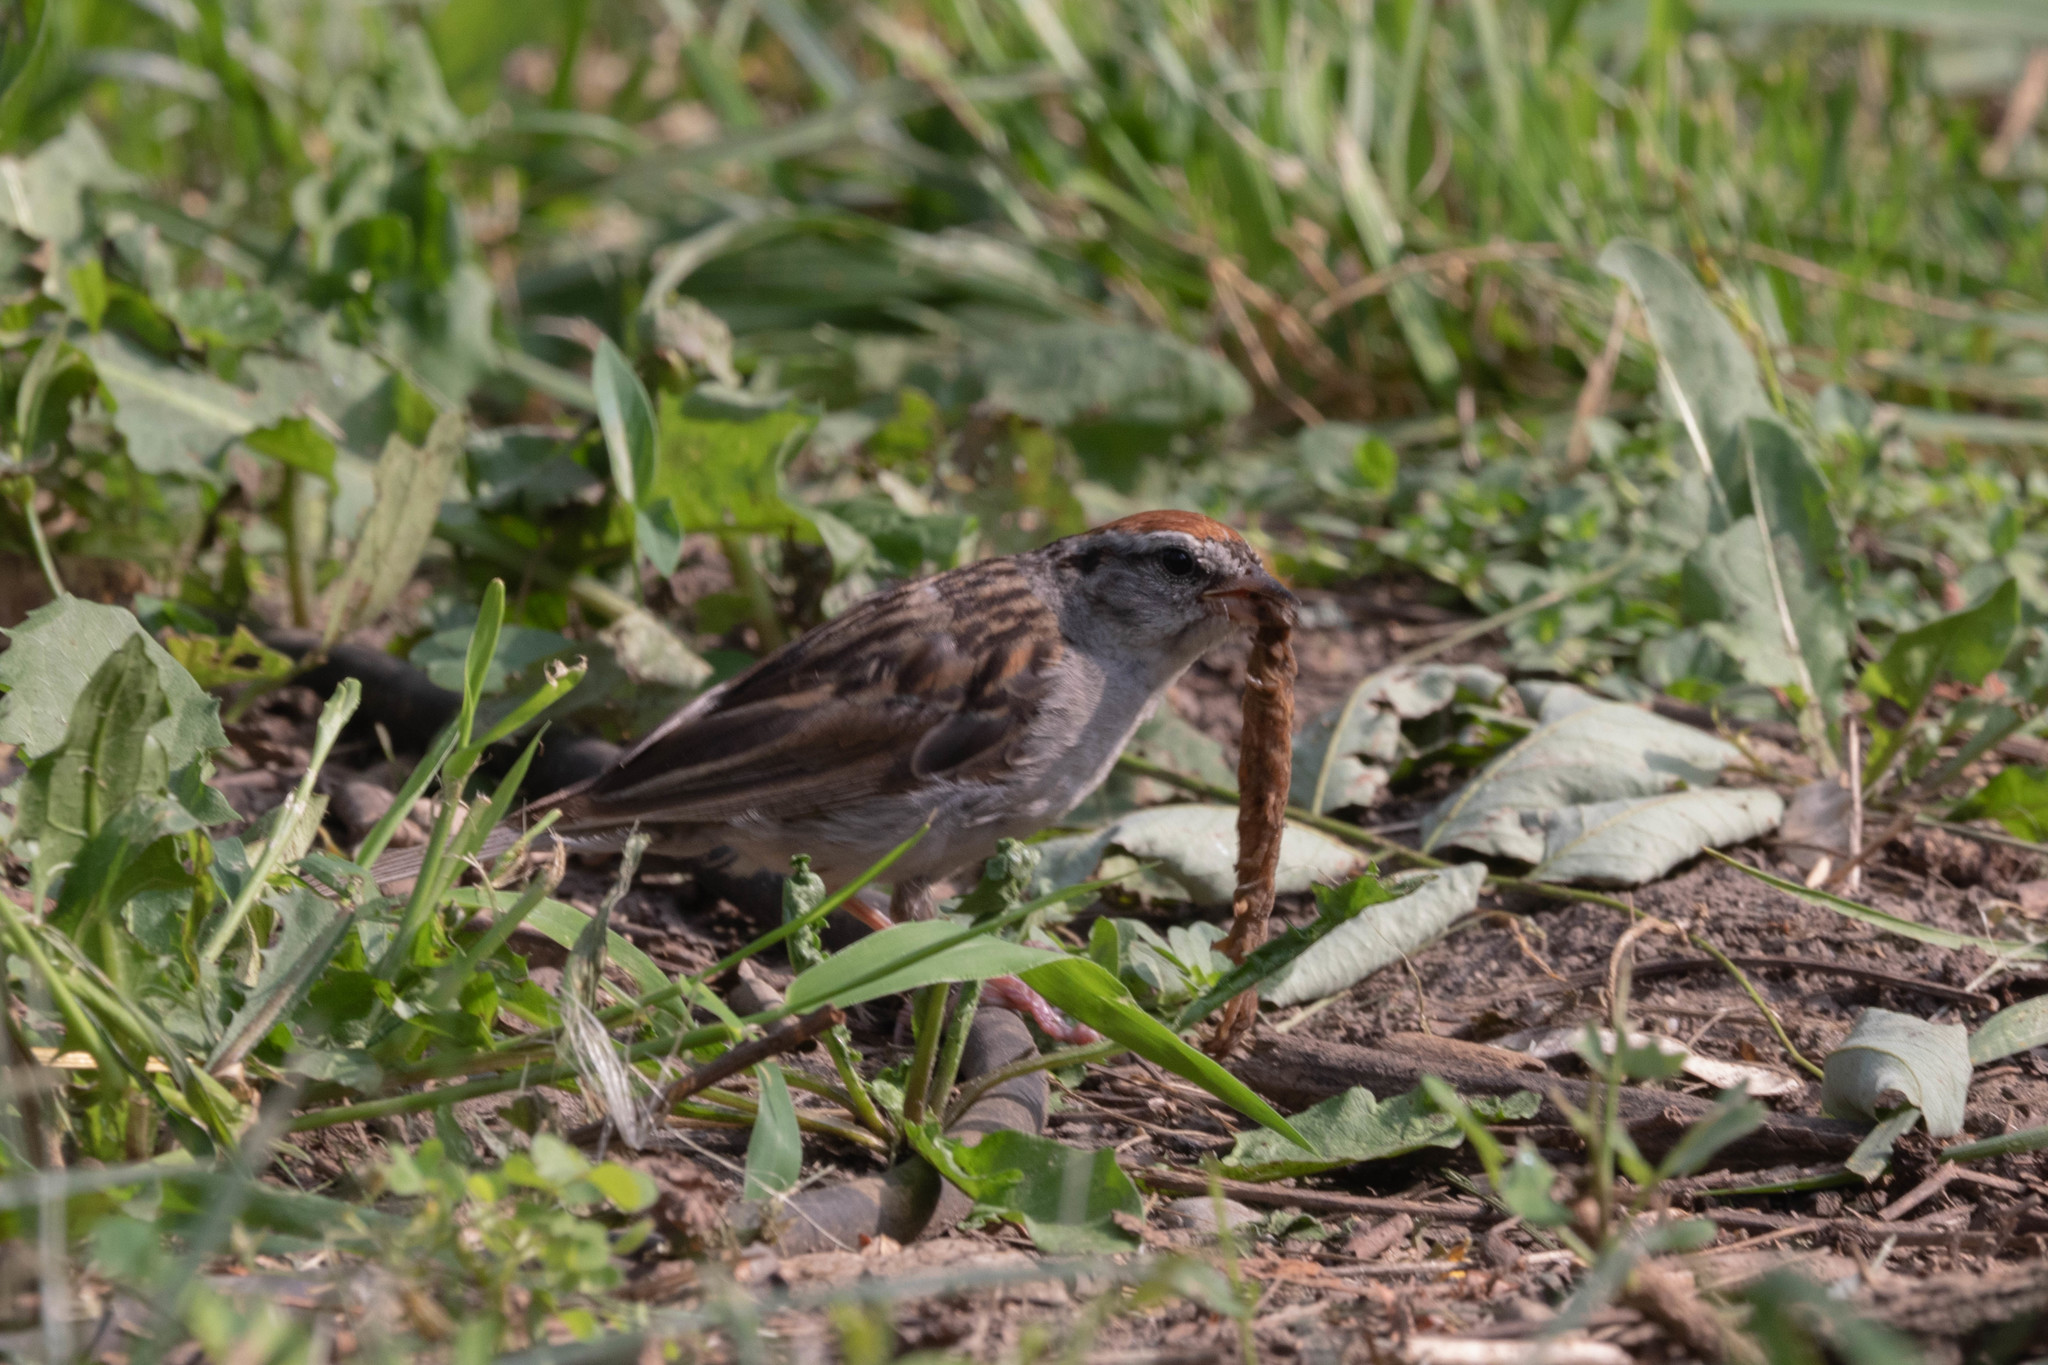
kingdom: Animalia
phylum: Chordata
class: Aves
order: Passeriformes
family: Passerellidae
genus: Spizella
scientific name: Spizella passerina
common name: Chipping sparrow
